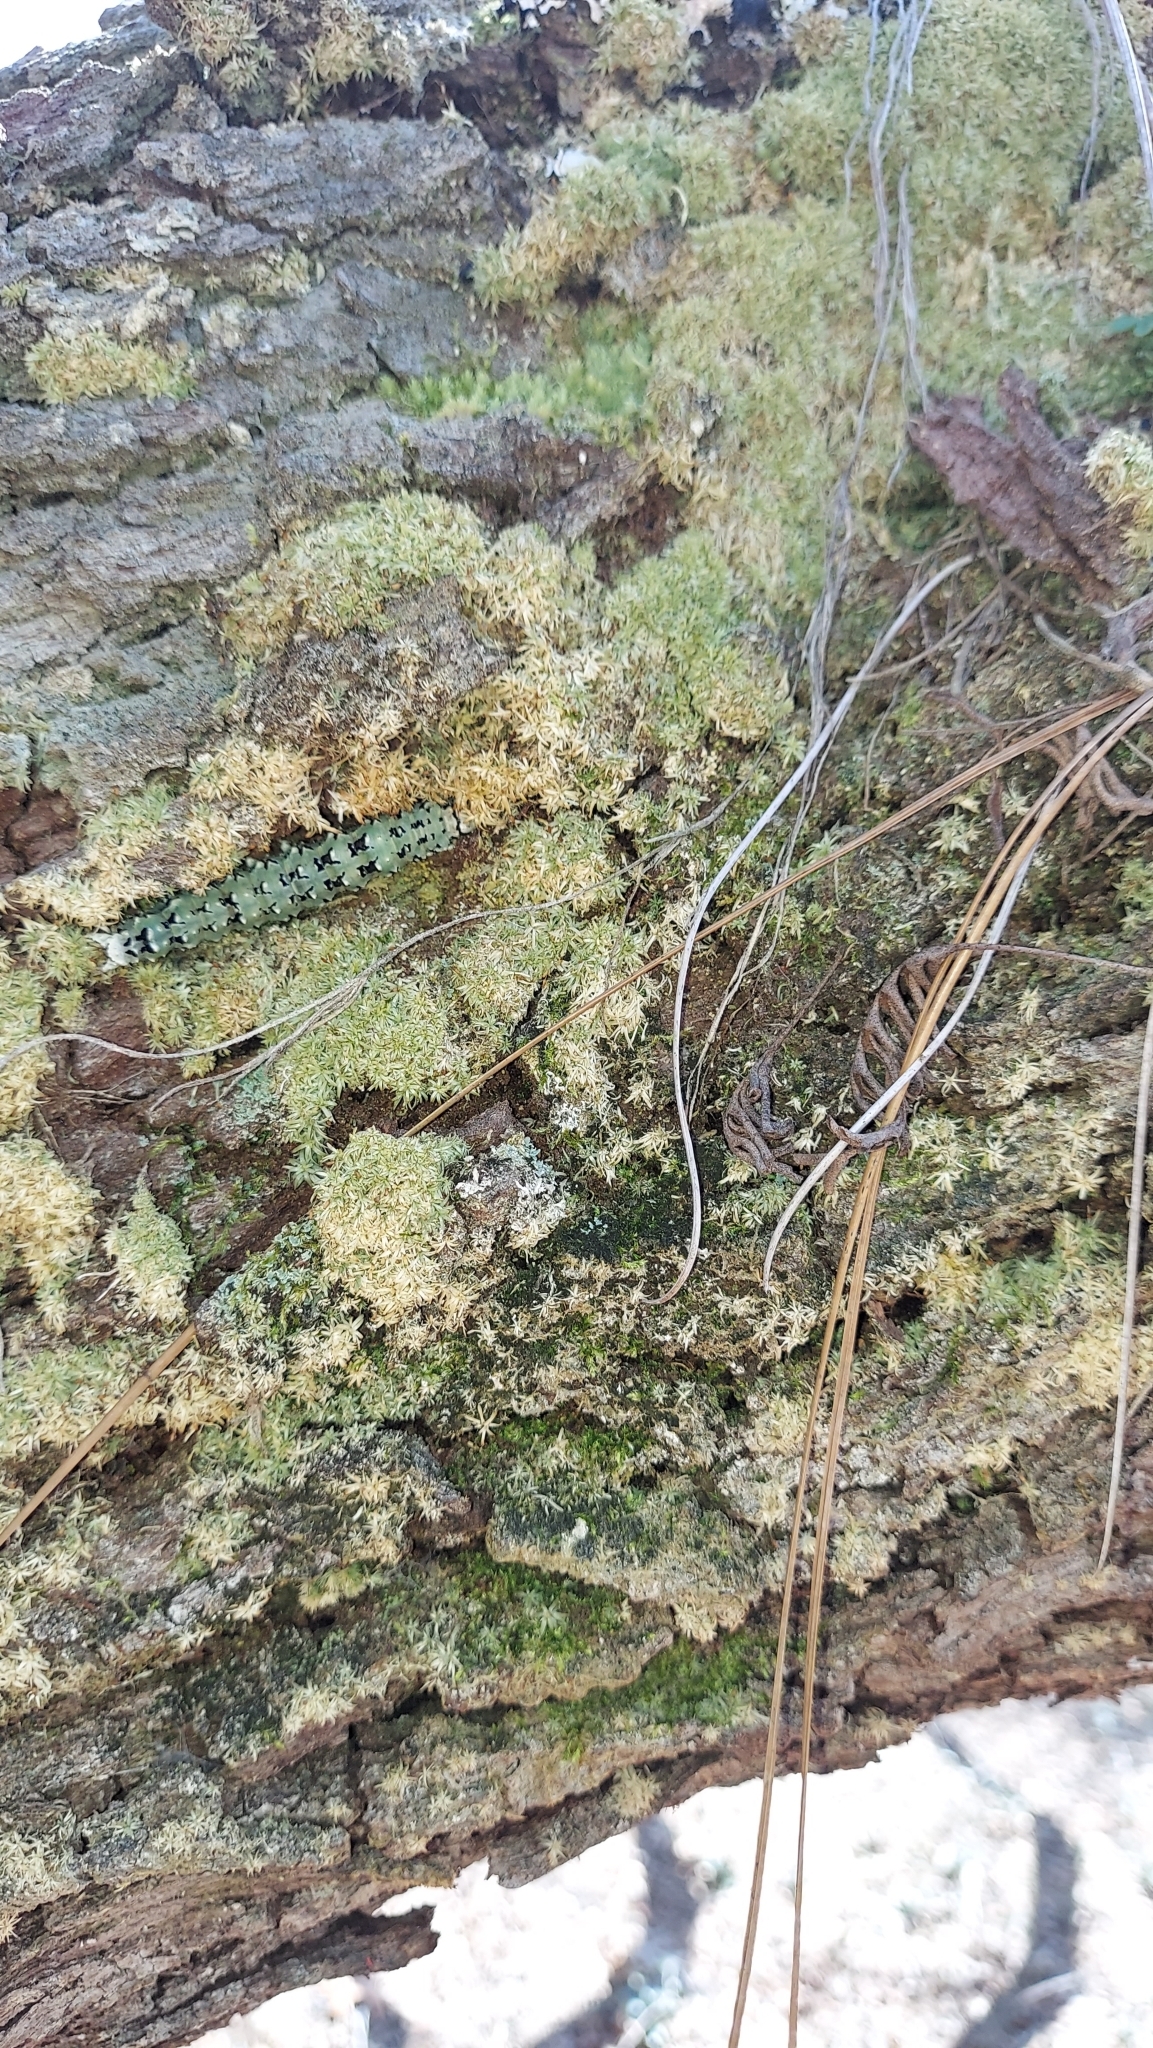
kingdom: Animalia
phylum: Arthropoda
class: Insecta
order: Lepidoptera
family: Erebidae
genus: Catocala
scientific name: Catocala ilia
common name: Ilia underwing
